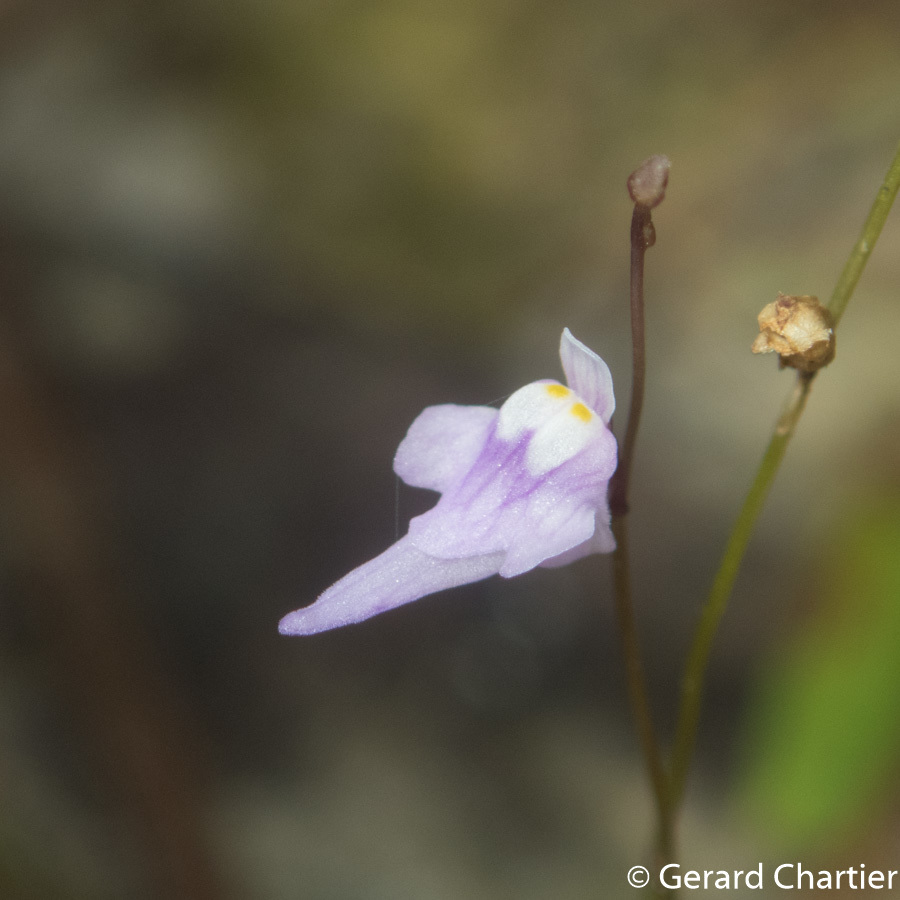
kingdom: Plantae
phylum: Tracheophyta
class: Magnoliopsida
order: Lamiales
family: Lentibulariaceae
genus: Utricularia
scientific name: Utricularia geoffrayi
